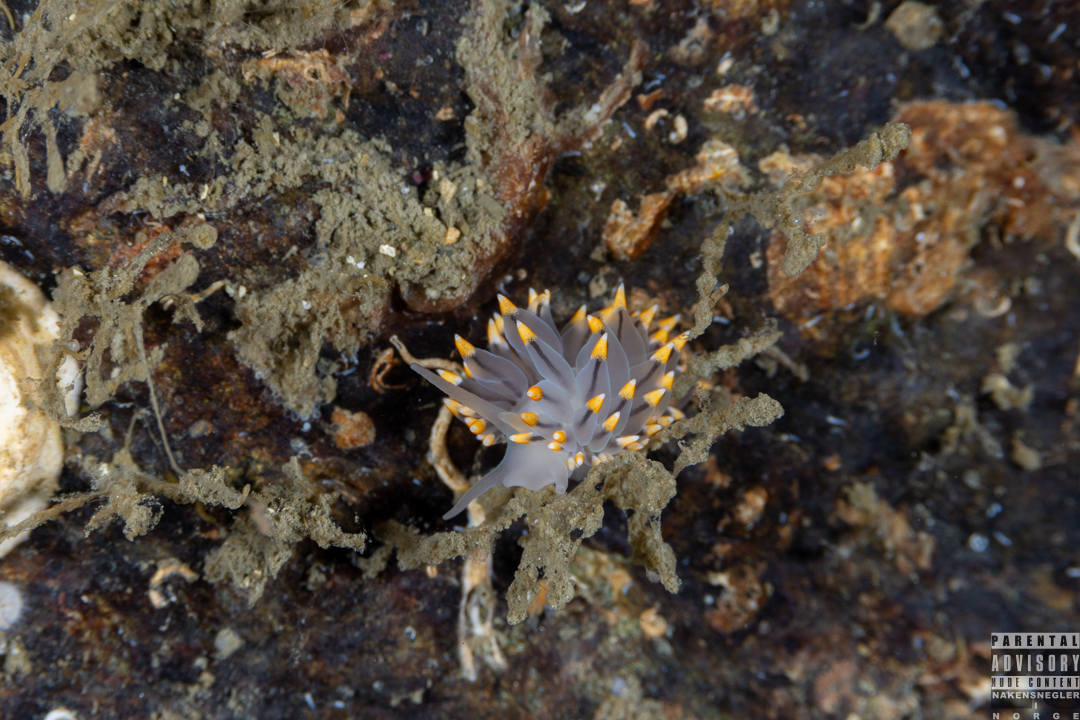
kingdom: Animalia
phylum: Mollusca
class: Gastropoda
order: Nudibranchia
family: Eubranchidae
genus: Eubranchus
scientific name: Eubranchus tricolor
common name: Painted balloon aeolis
